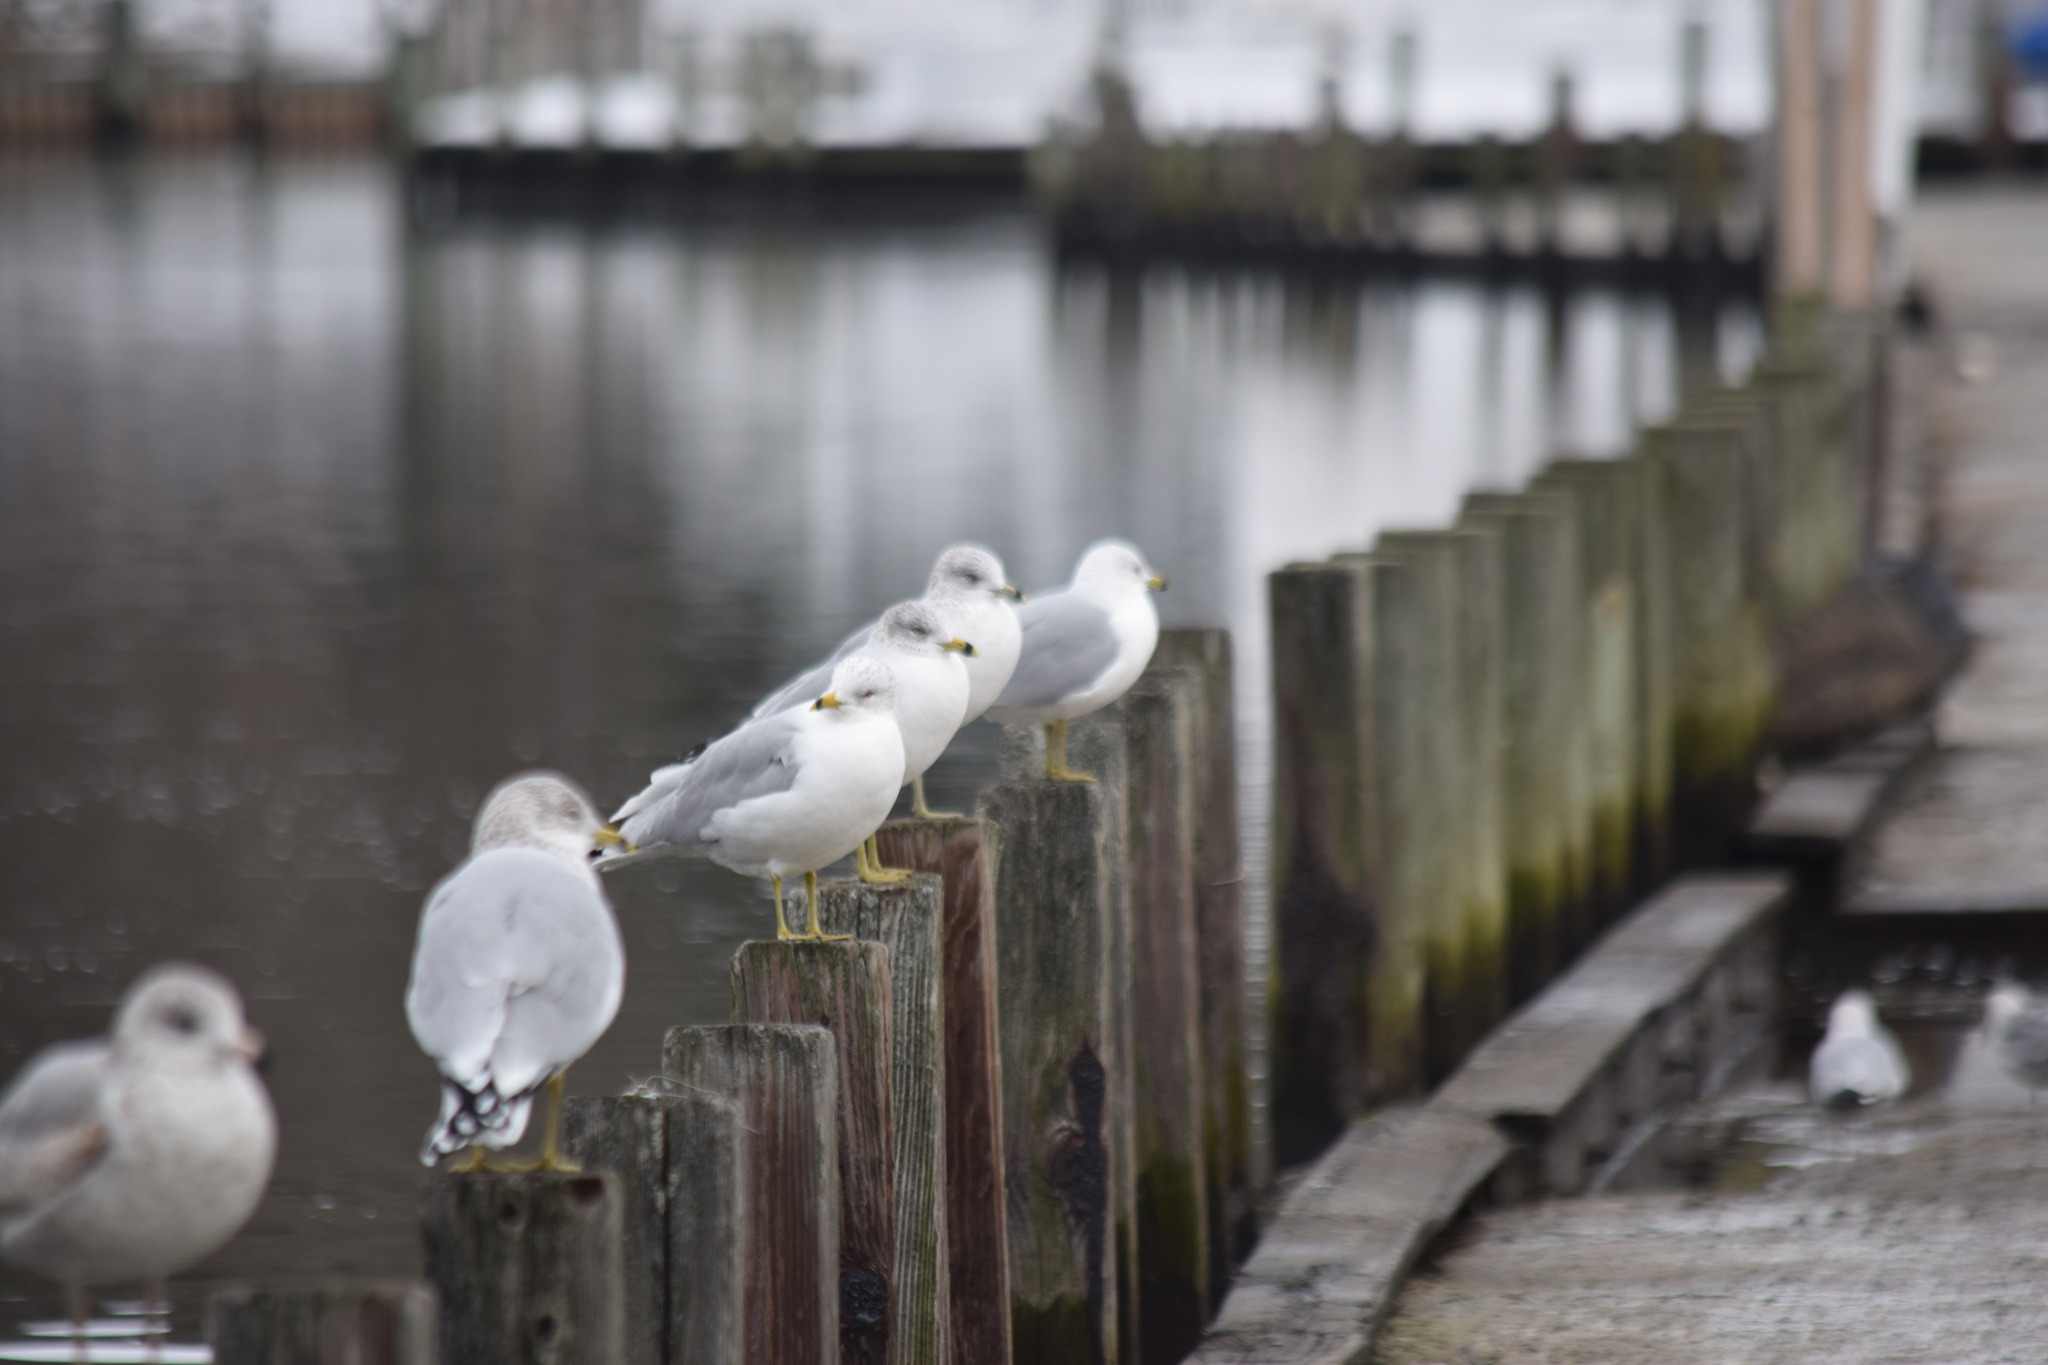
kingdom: Animalia
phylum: Chordata
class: Aves
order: Charadriiformes
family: Laridae
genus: Larus
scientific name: Larus delawarensis
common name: Ring-billed gull
